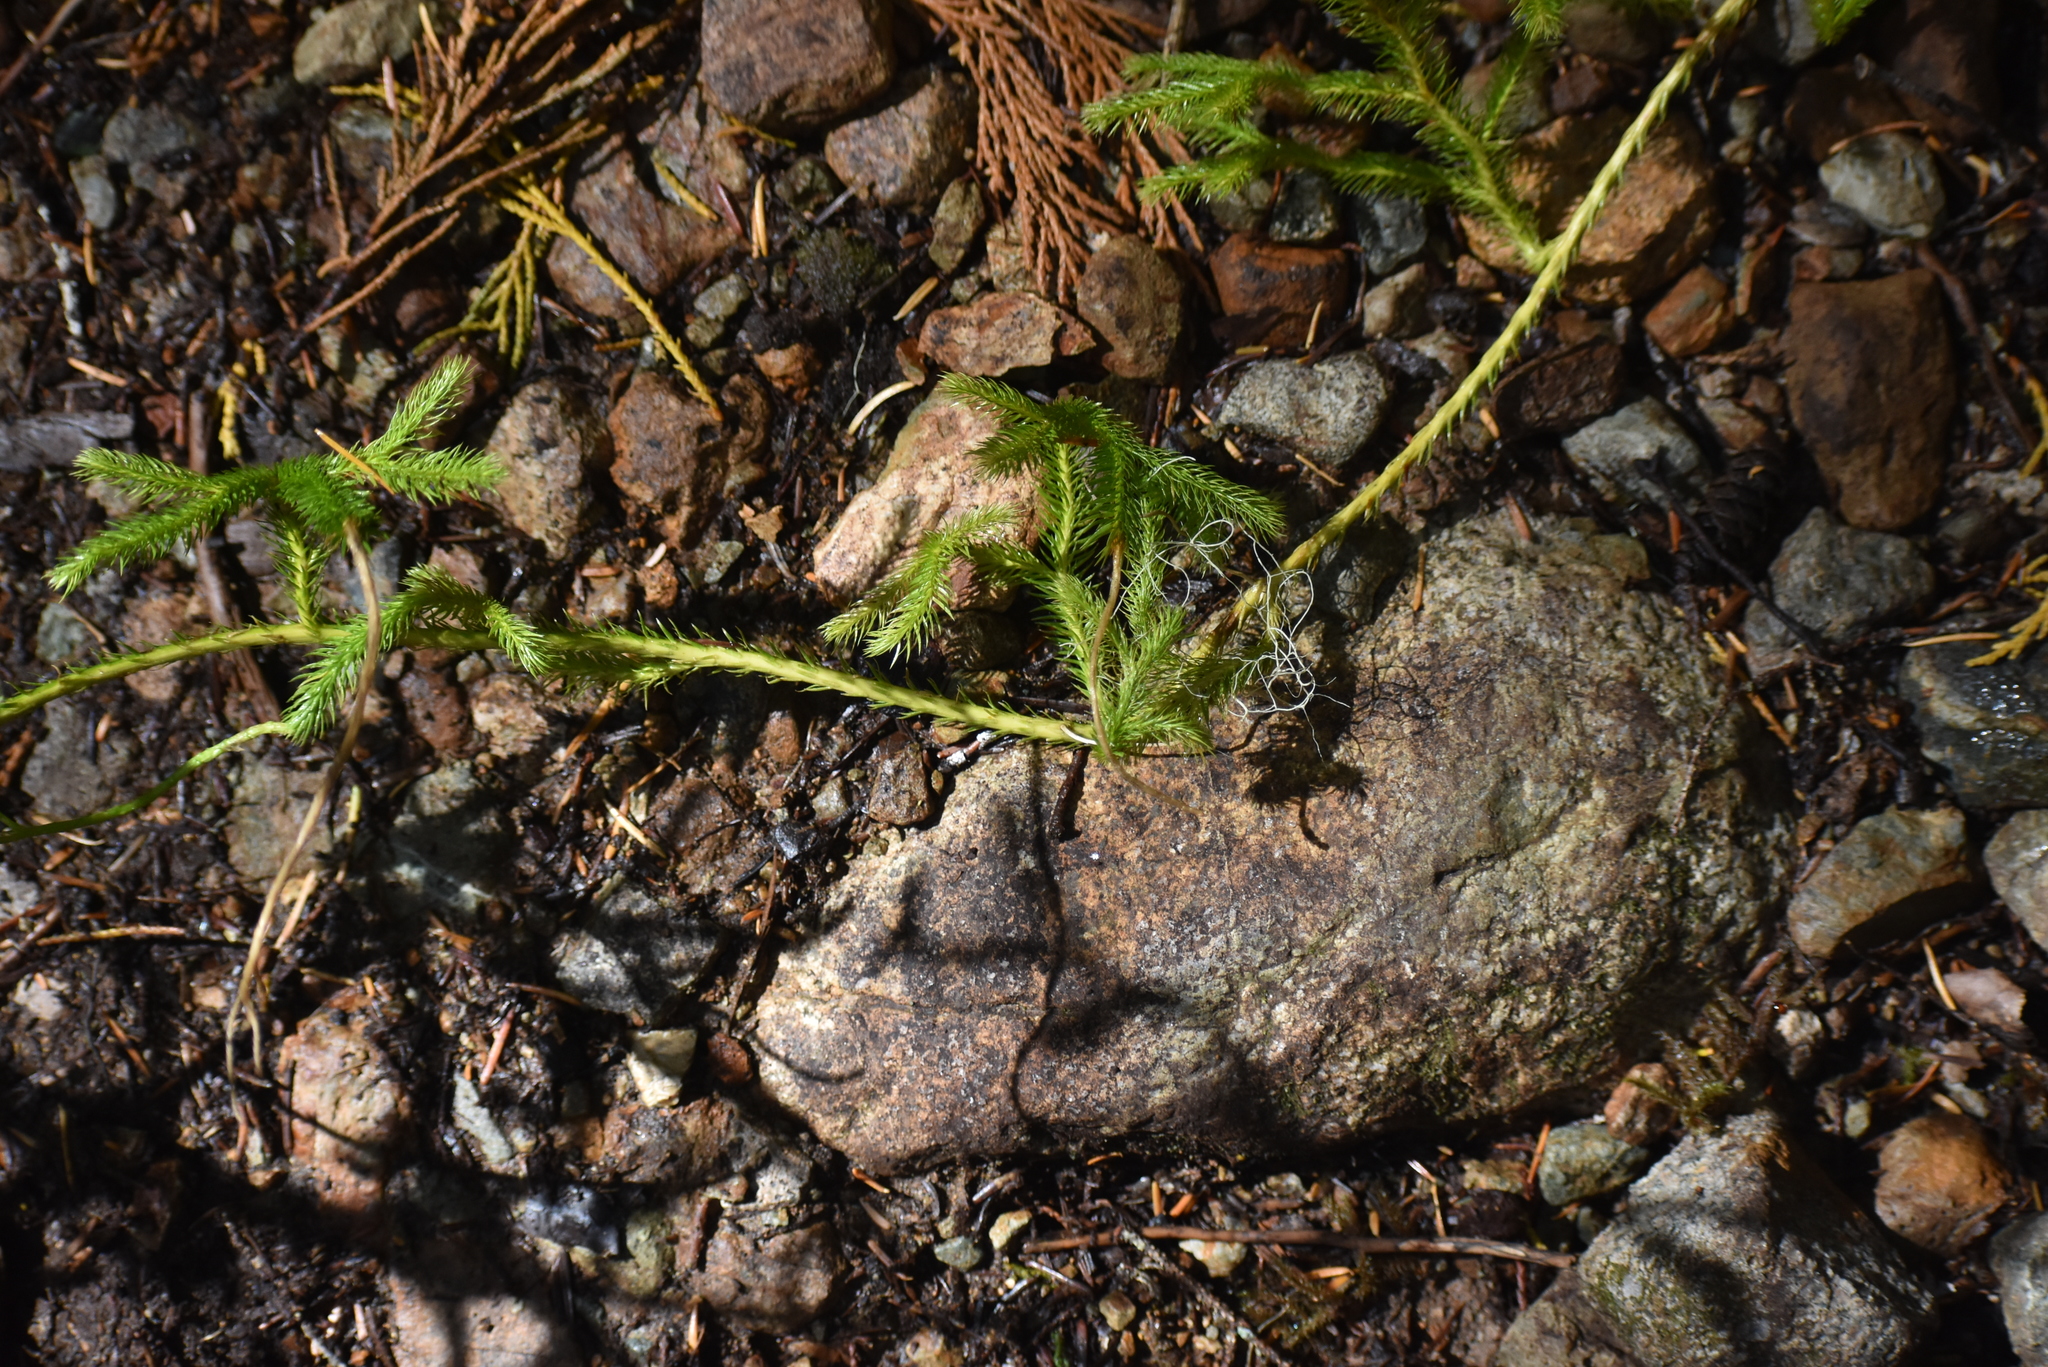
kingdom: Plantae
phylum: Tracheophyta
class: Lycopodiopsida
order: Lycopodiales
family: Lycopodiaceae
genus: Lycopodium
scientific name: Lycopodium clavatum
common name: Stag's-horn clubmoss
